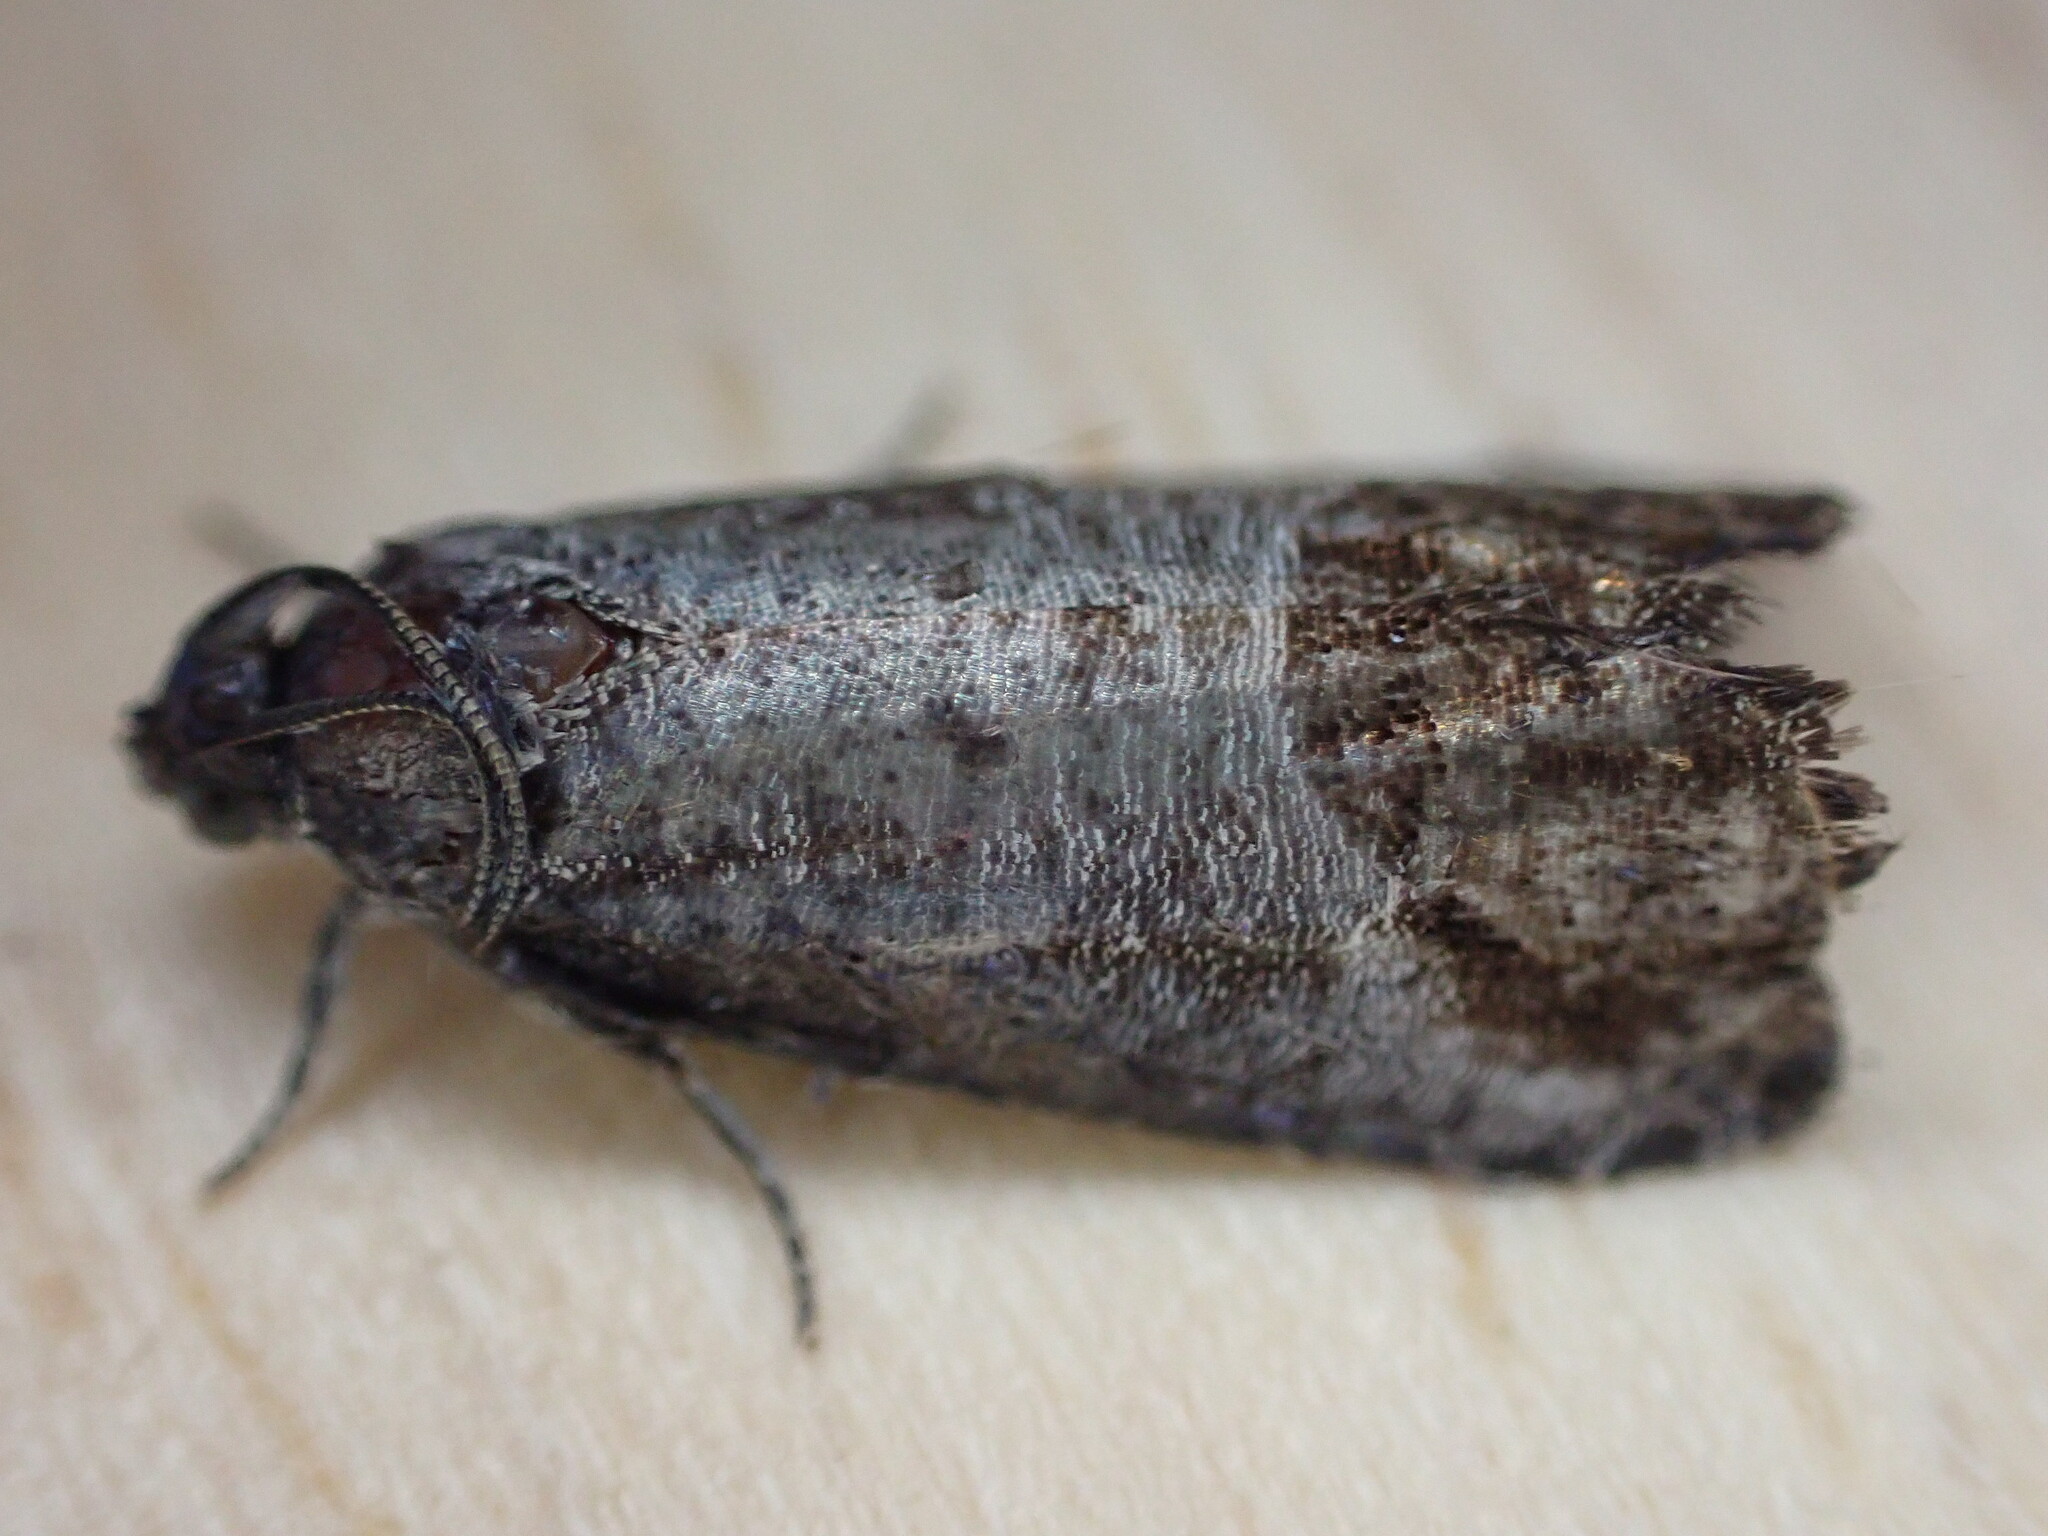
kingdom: Animalia
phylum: Arthropoda
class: Insecta
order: Lepidoptera
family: Tortricidae
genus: Cydia
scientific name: Cydia pomonella
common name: Codling moth
